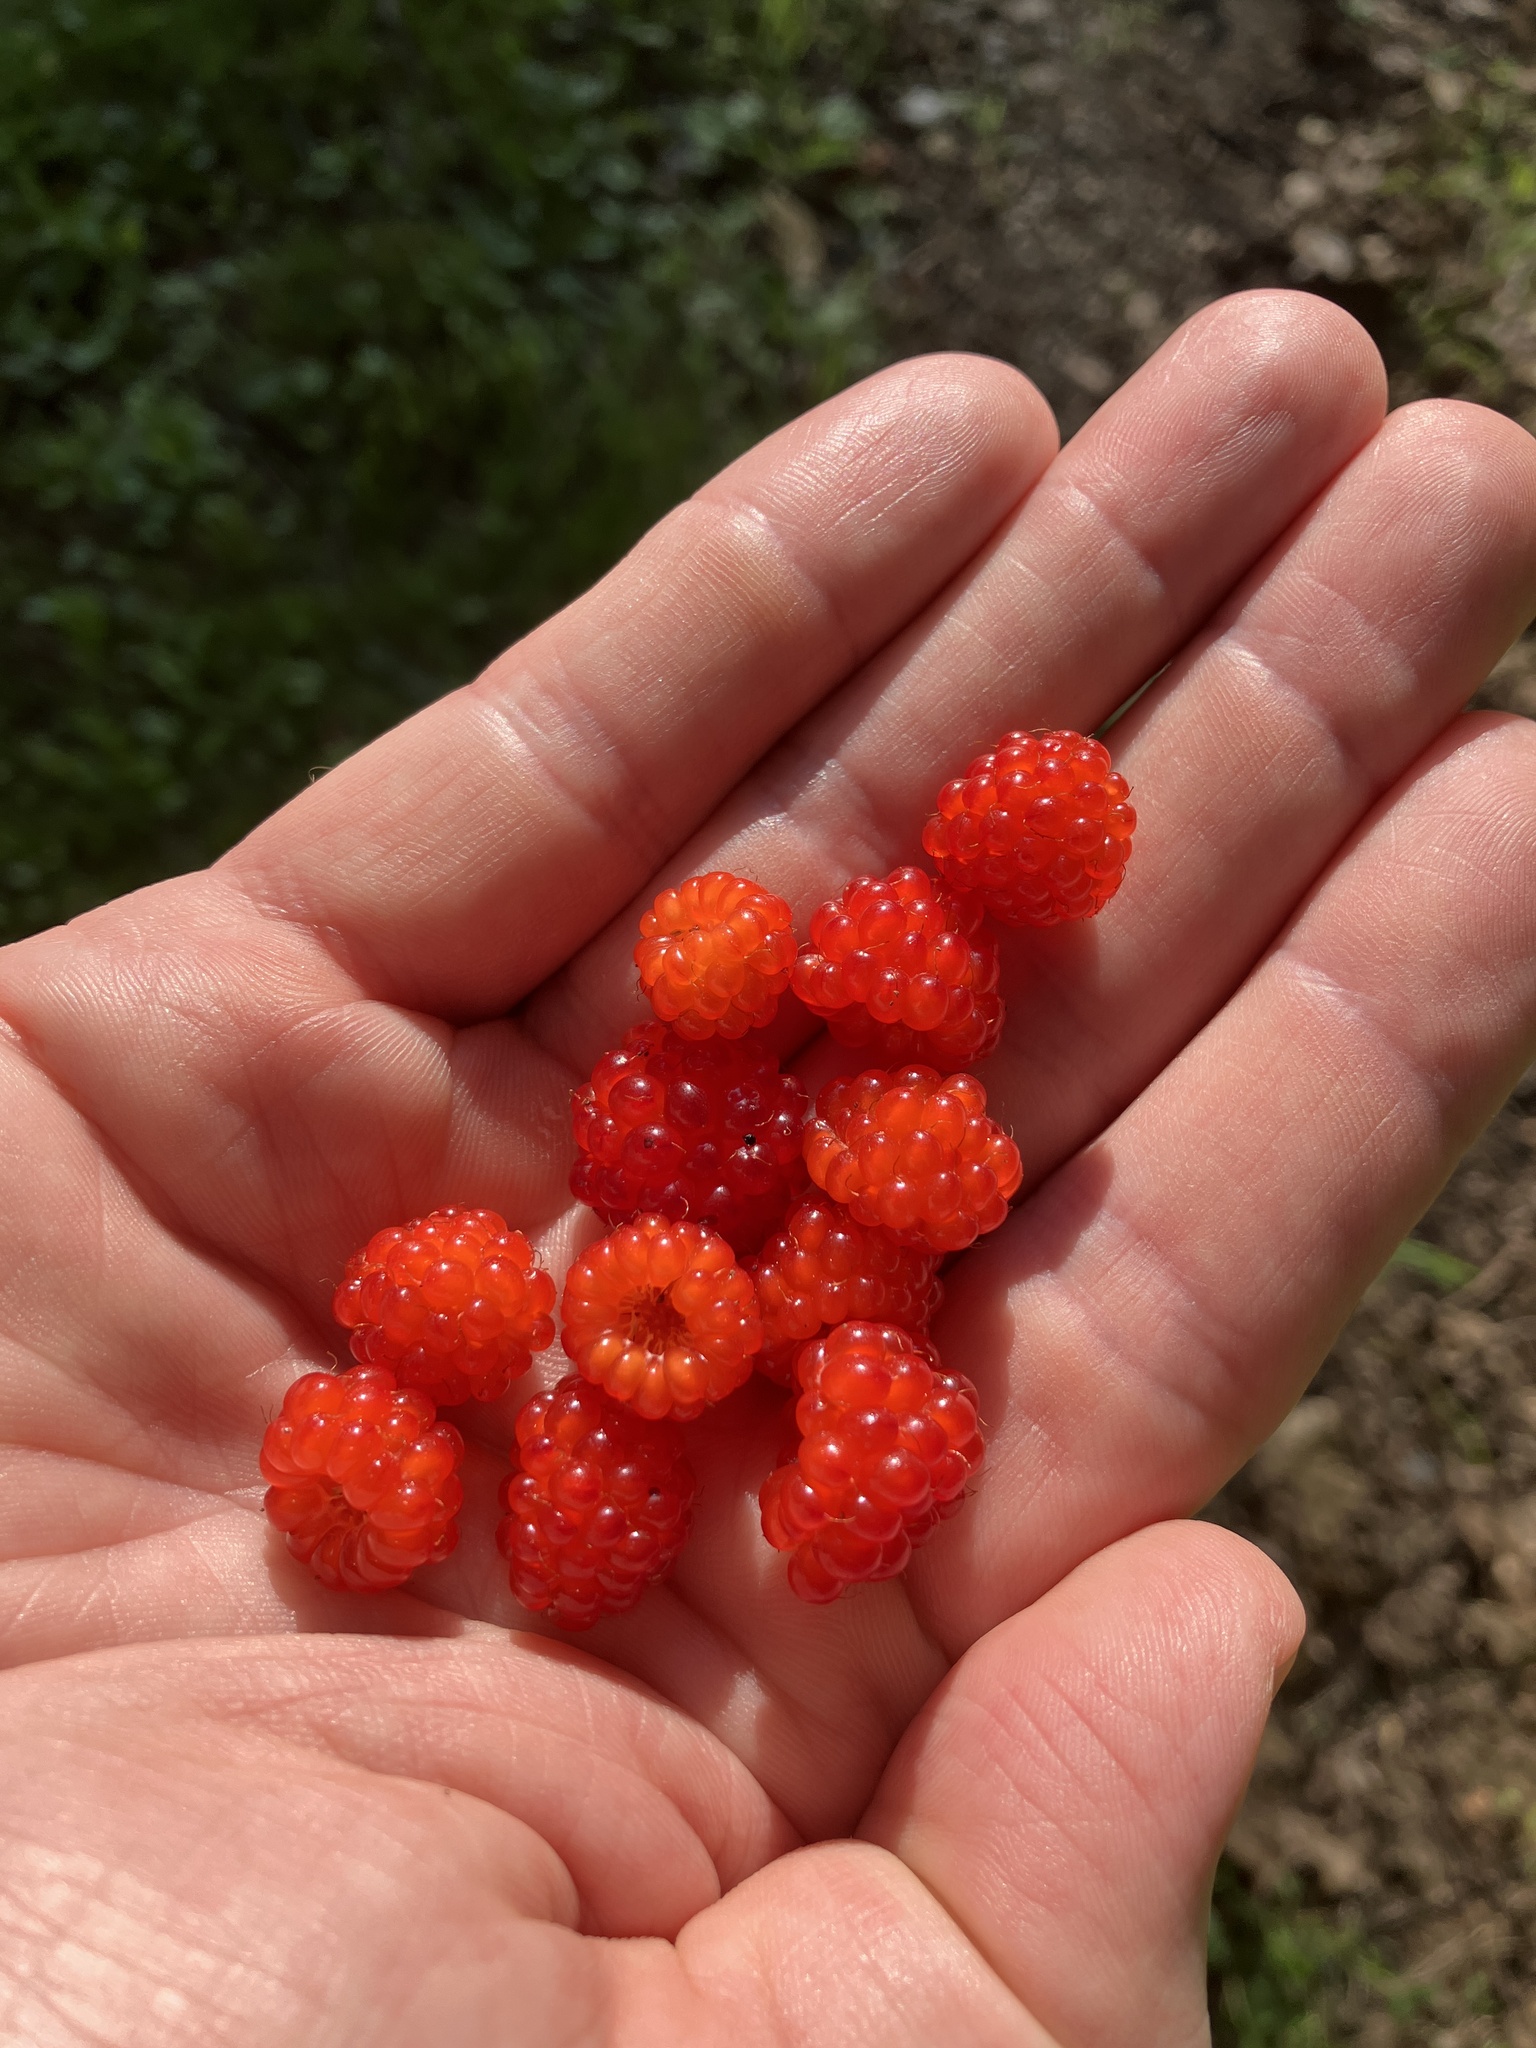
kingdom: Plantae
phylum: Tracheophyta
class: Magnoliopsida
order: Rosales
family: Rosaceae
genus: Rubus
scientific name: Rubus phoenicolasius
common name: Japanese wineberry
